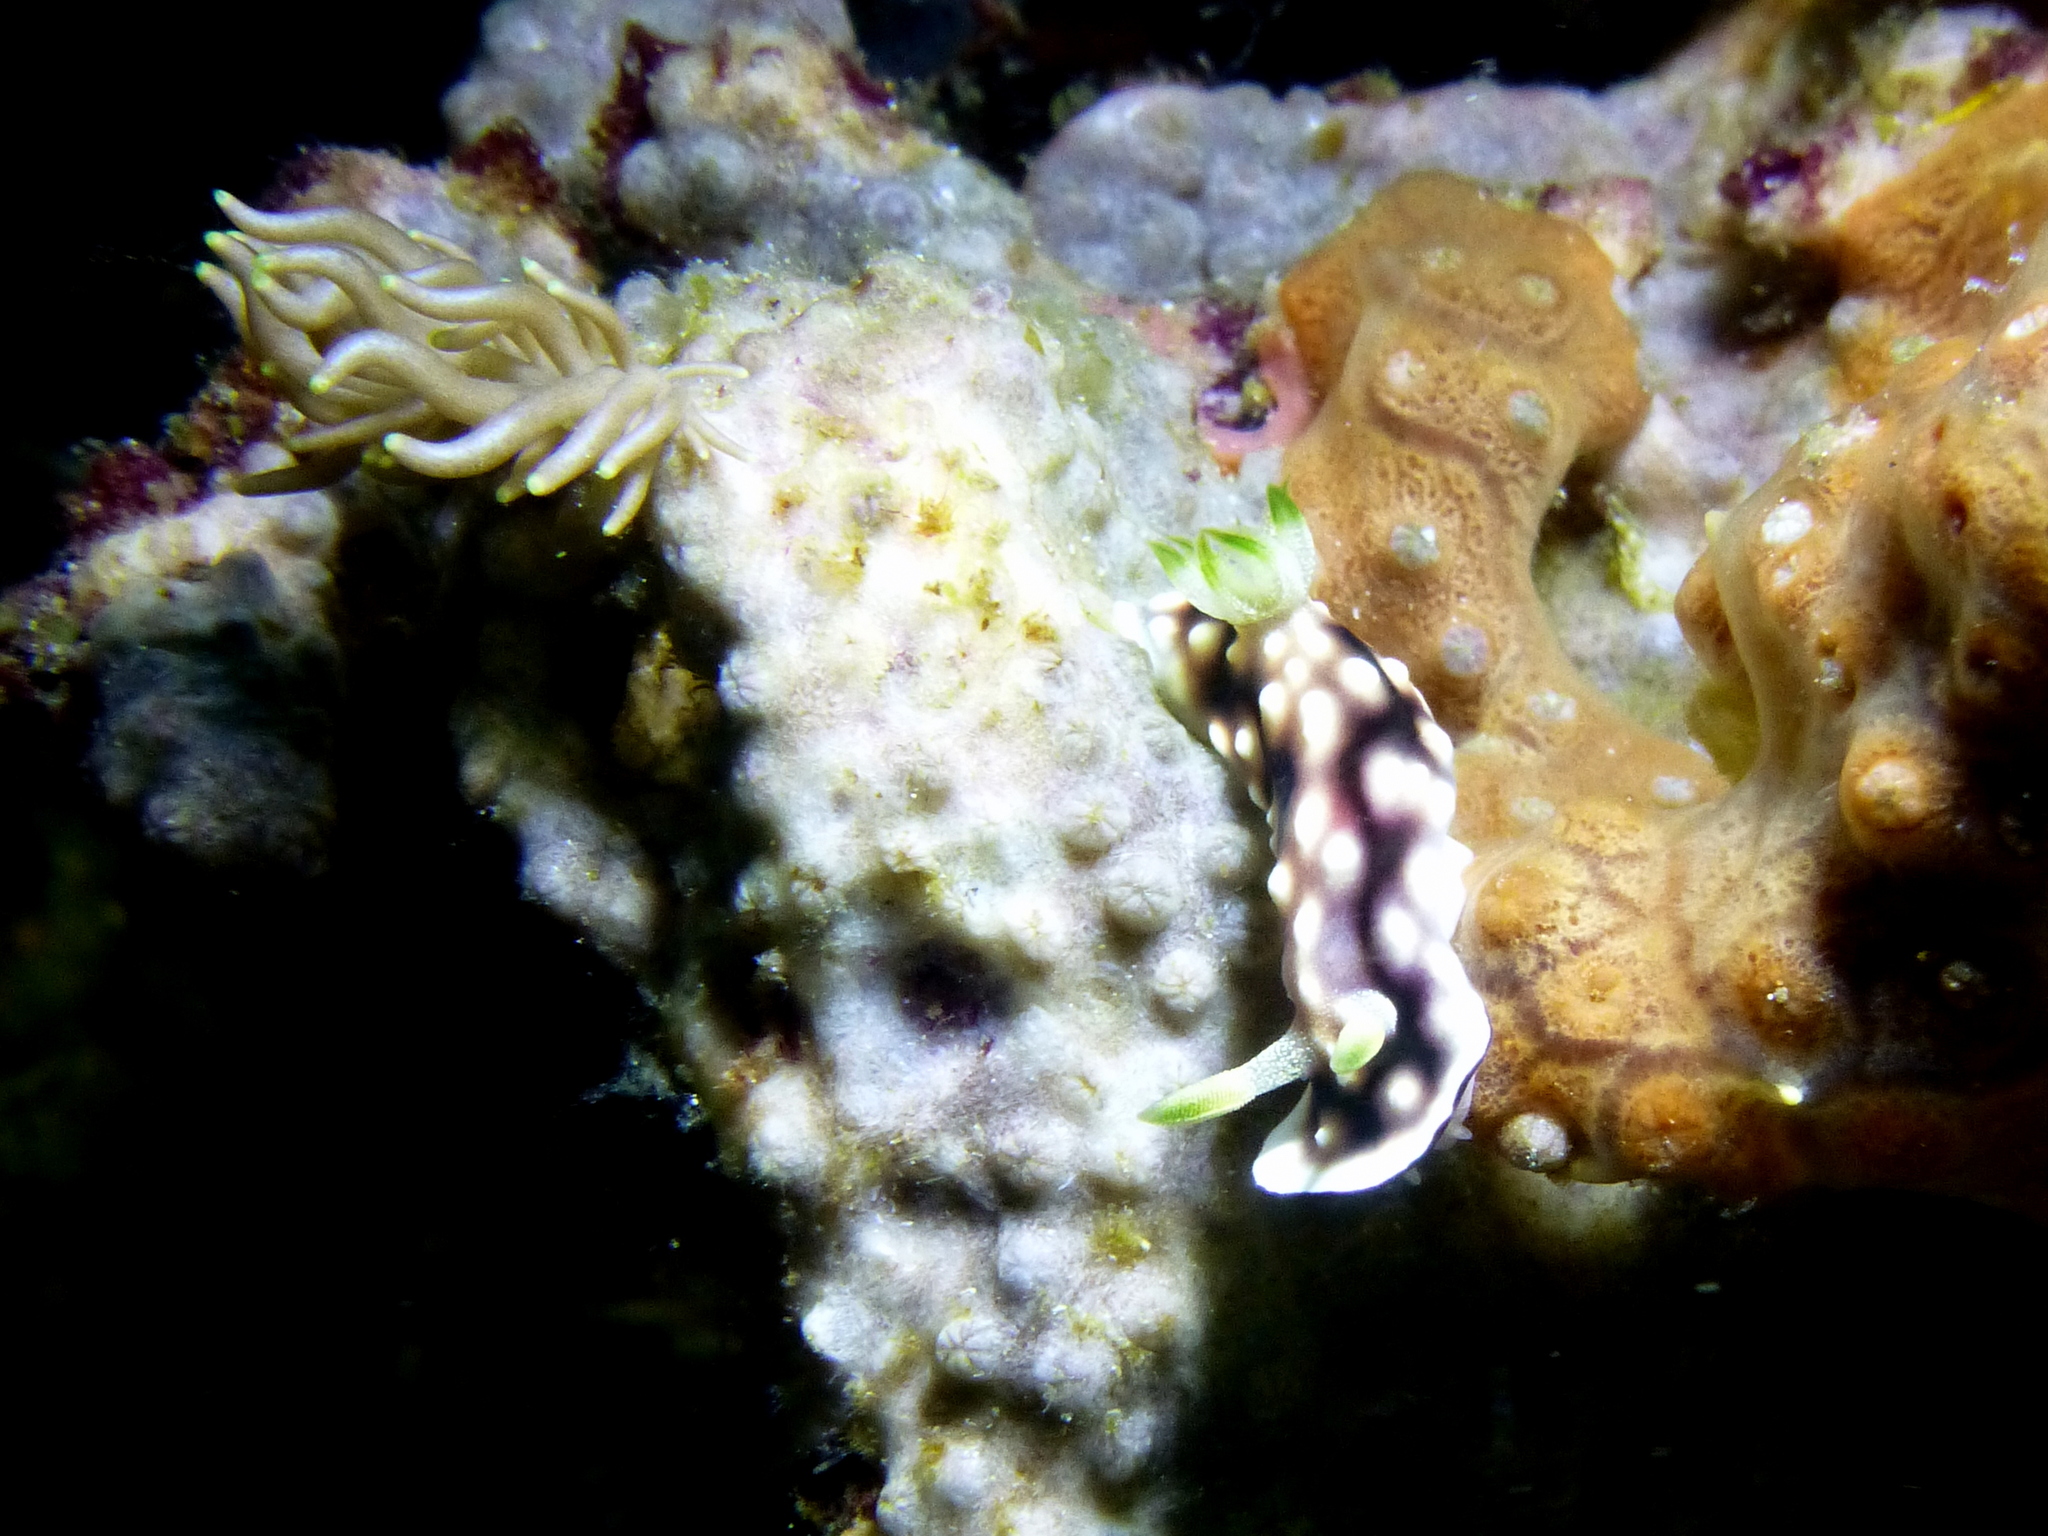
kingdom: Animalia
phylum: Mollusca
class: Gastropoda
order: Nudibranchia
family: Chromodorididae
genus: Goniobranchus
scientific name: Goniobranchus geometricus
